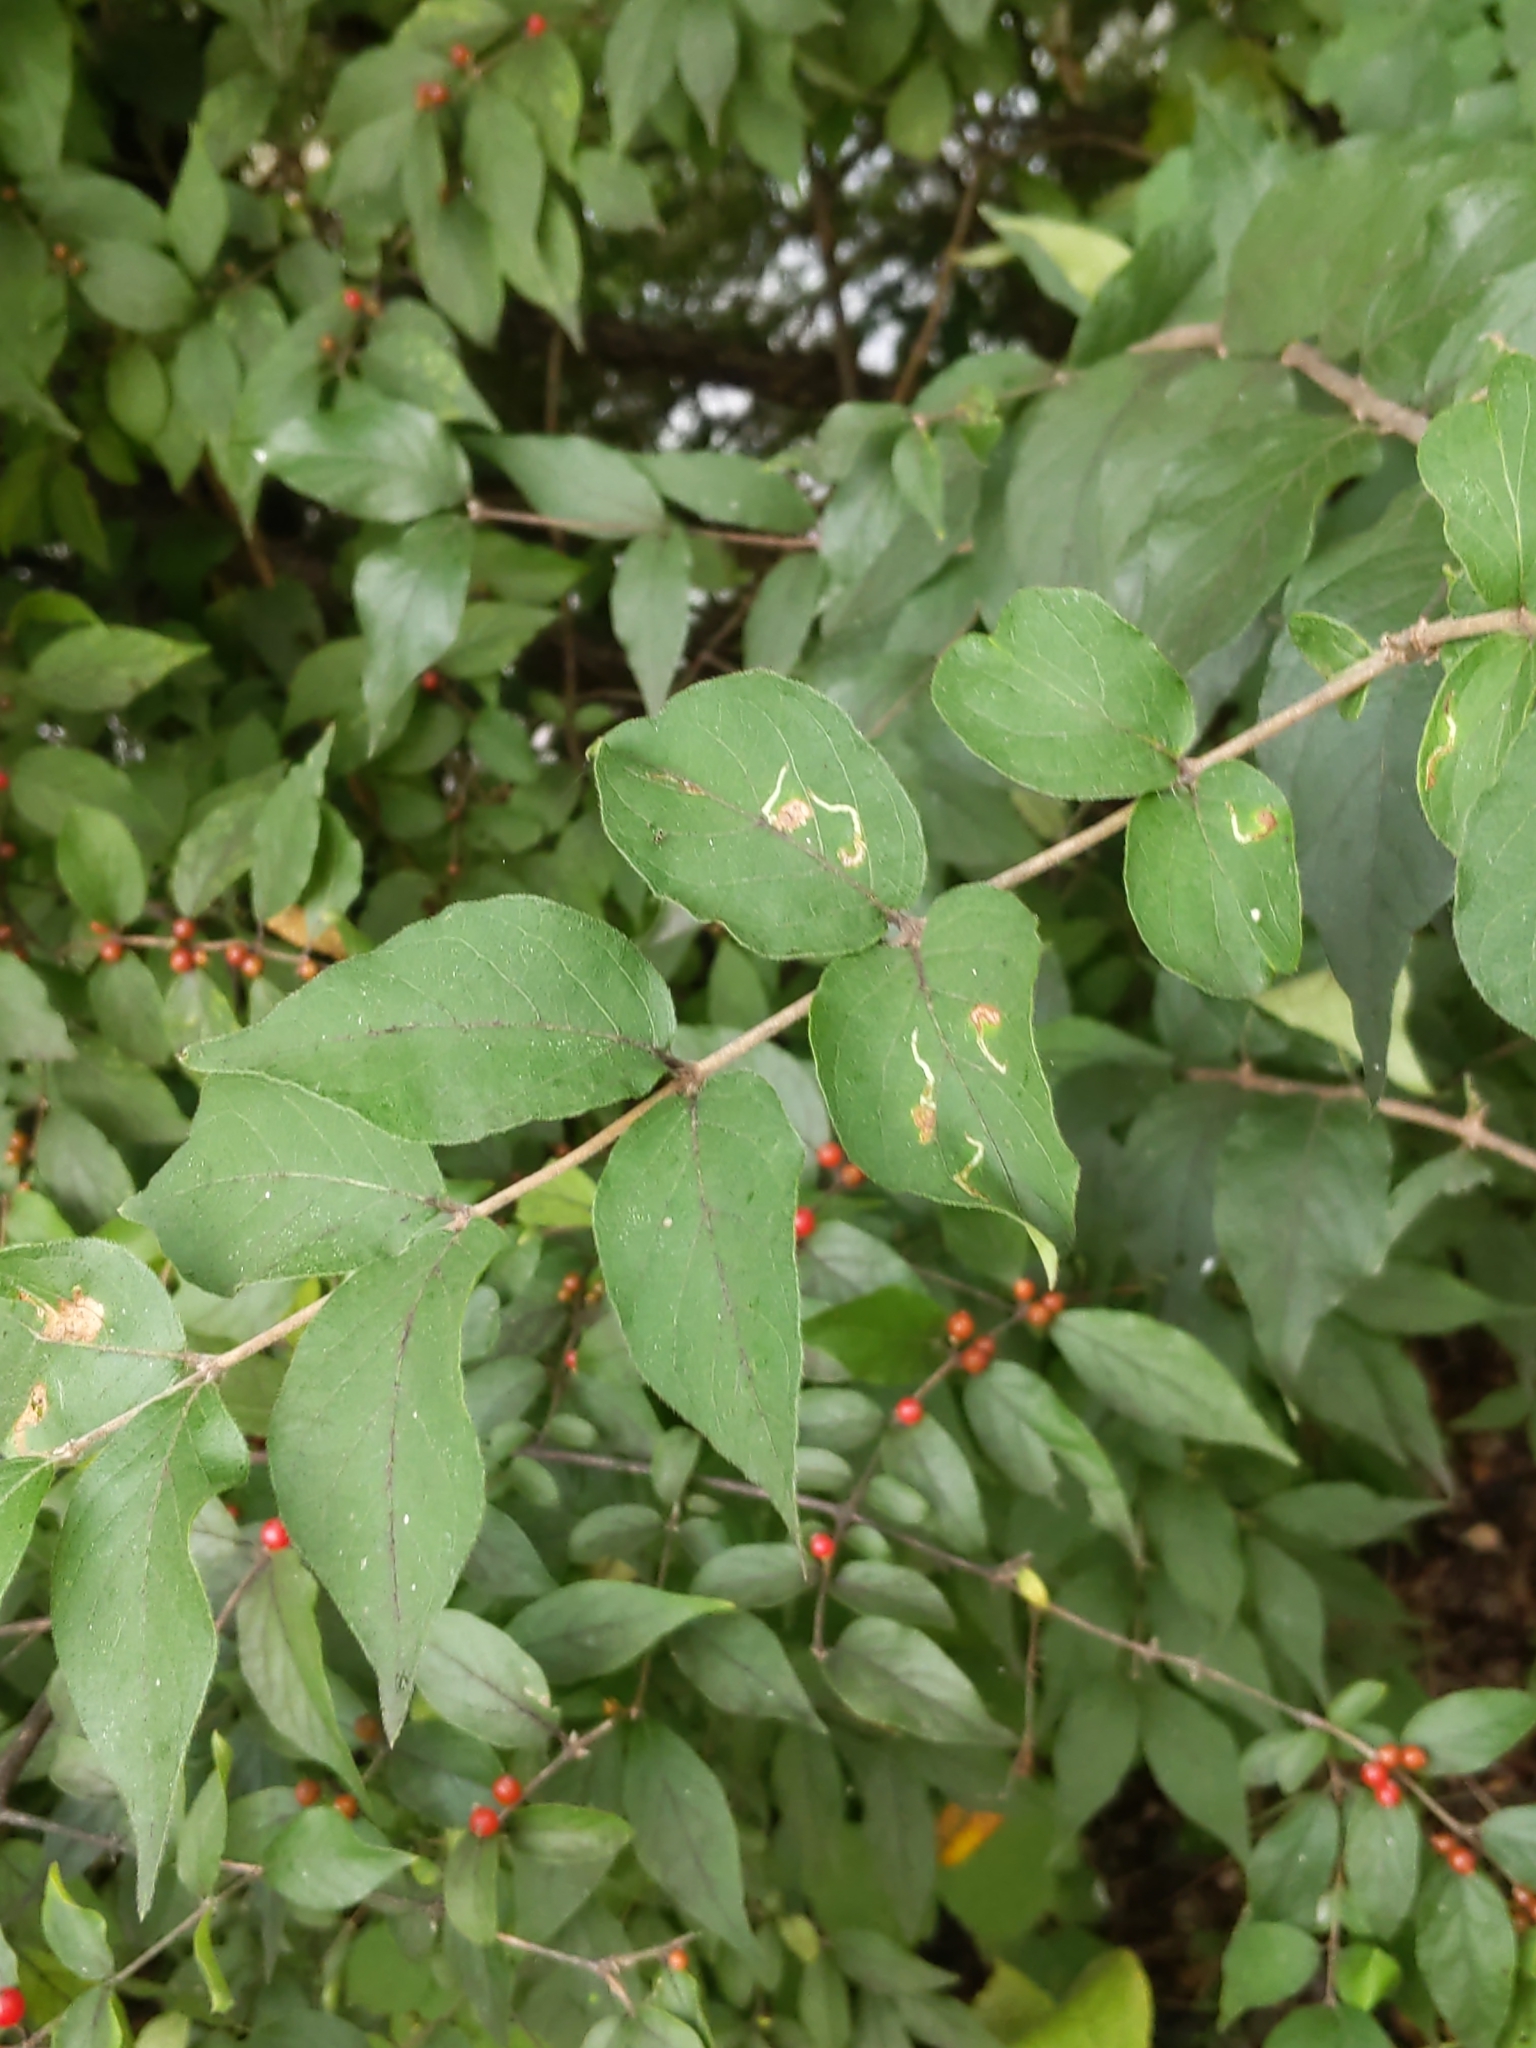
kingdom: Plantae
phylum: Tracheophyta
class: Magnoliopsida
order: Dipsacales
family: Caprifoliaceae
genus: Lonicera
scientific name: Lonicera maackii
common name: Amur honeysuckle
